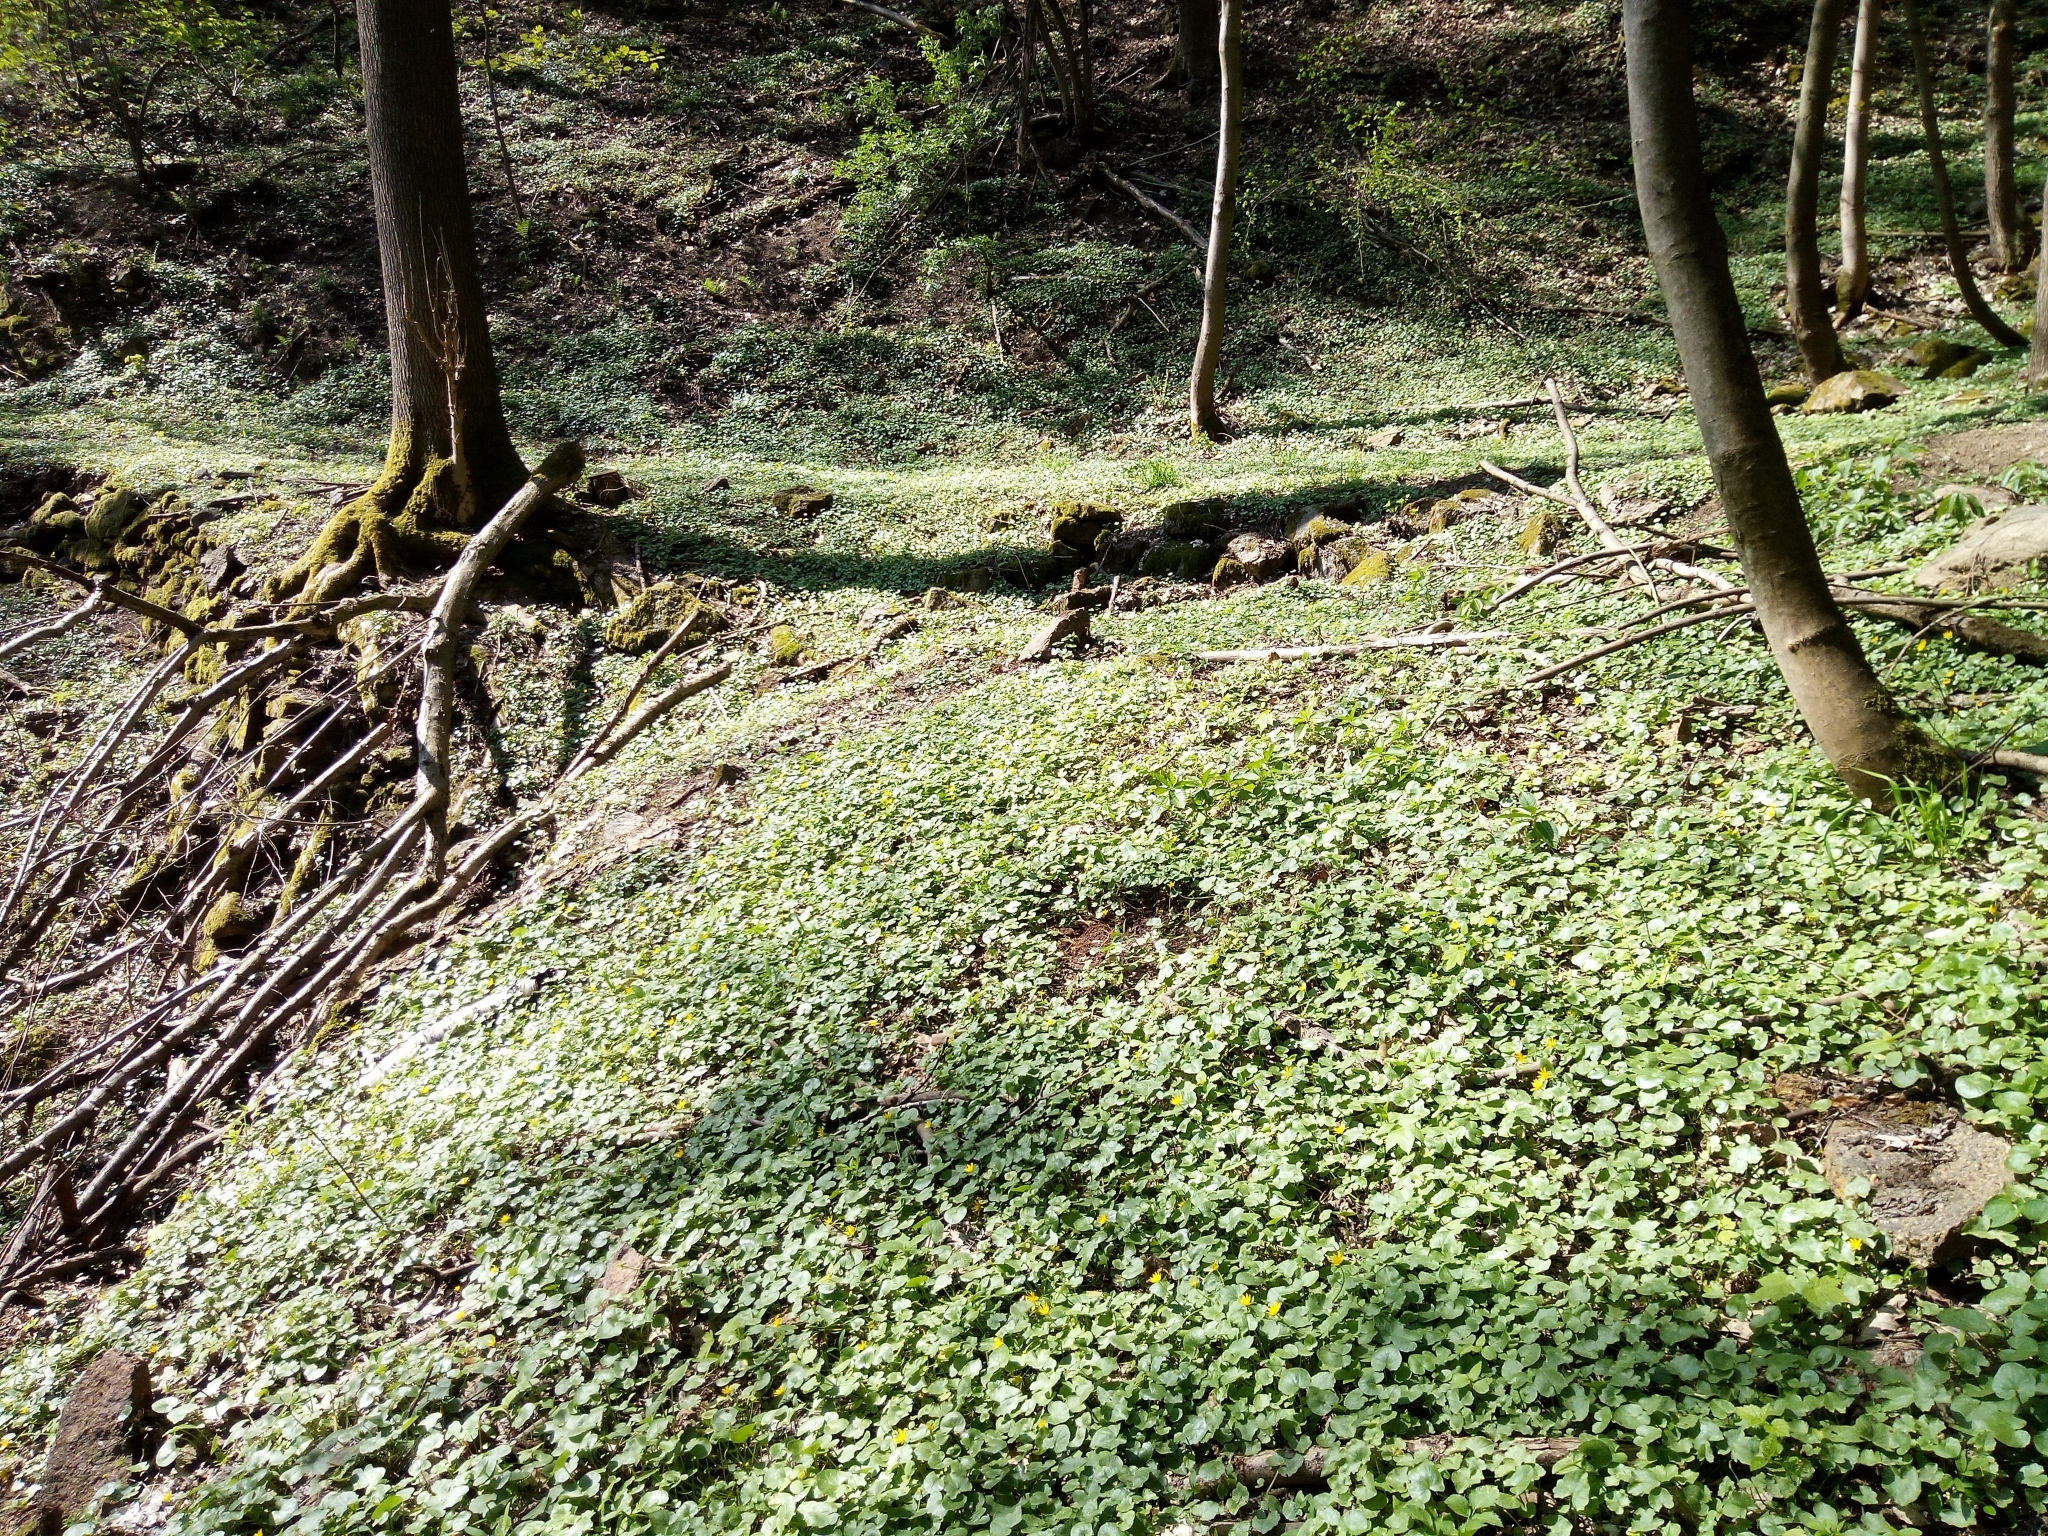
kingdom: Plantae
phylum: Tracheophyta
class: Magnoliopsida
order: Ranunculales
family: Ranunculaceae
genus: Ficaria
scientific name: Ficaria verna
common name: Lesser celandine
